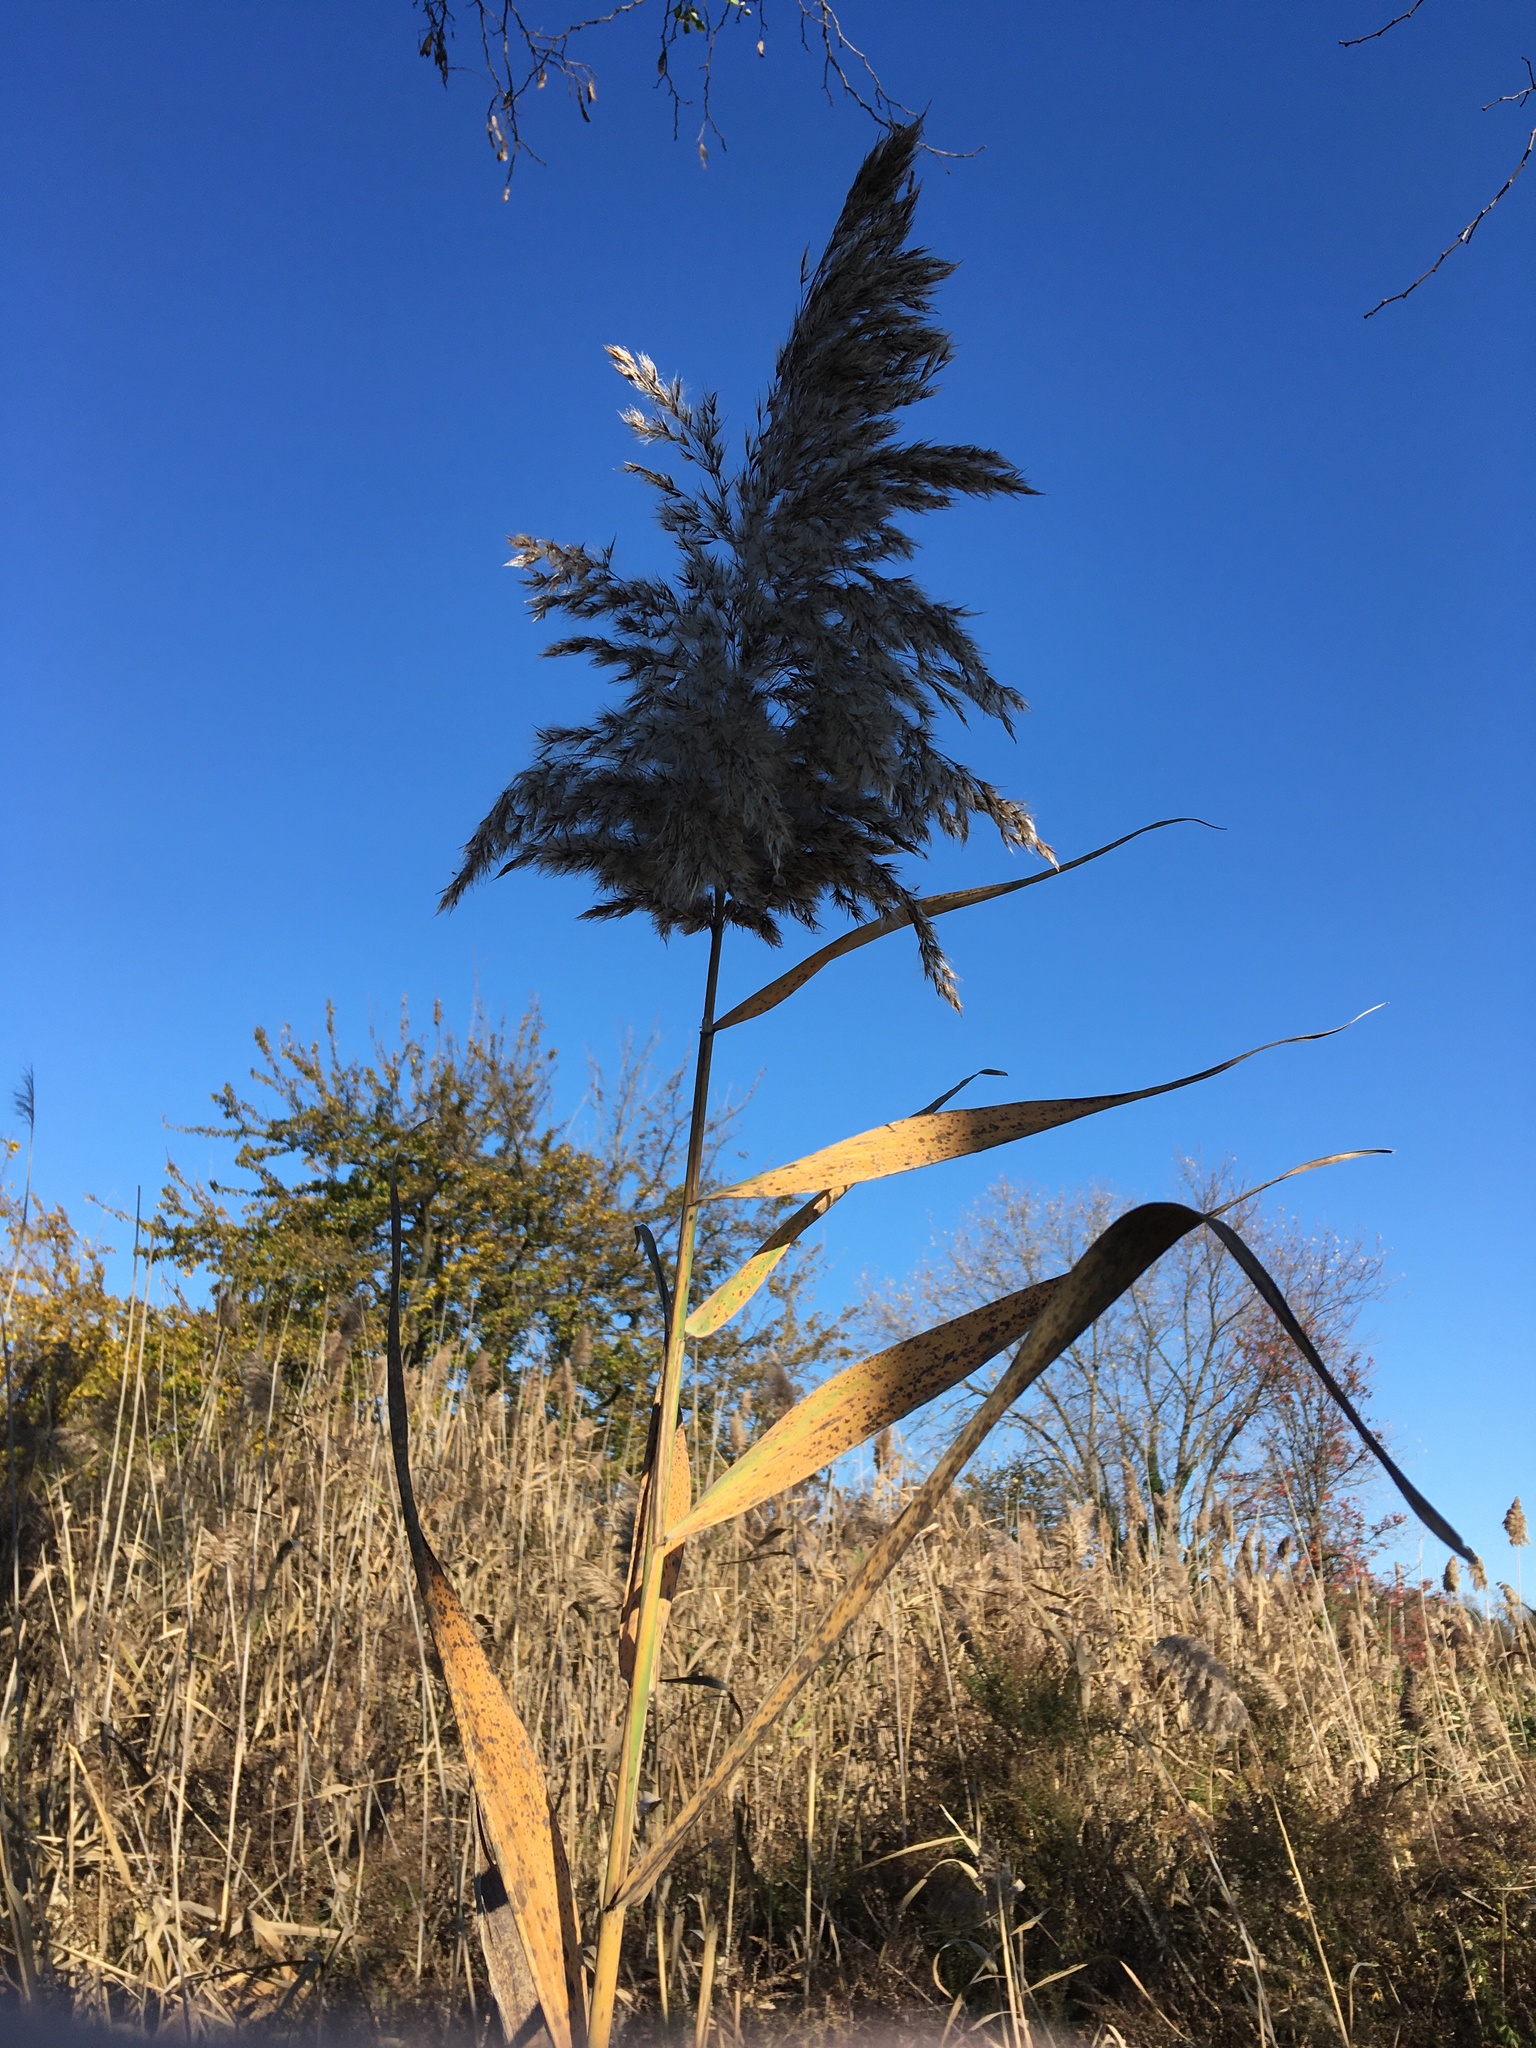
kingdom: Plantae
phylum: Tracheophyta
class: Liliopsida
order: Poales
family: Poaceae
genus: Phragmites
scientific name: Phragmites australis
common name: Common reed
